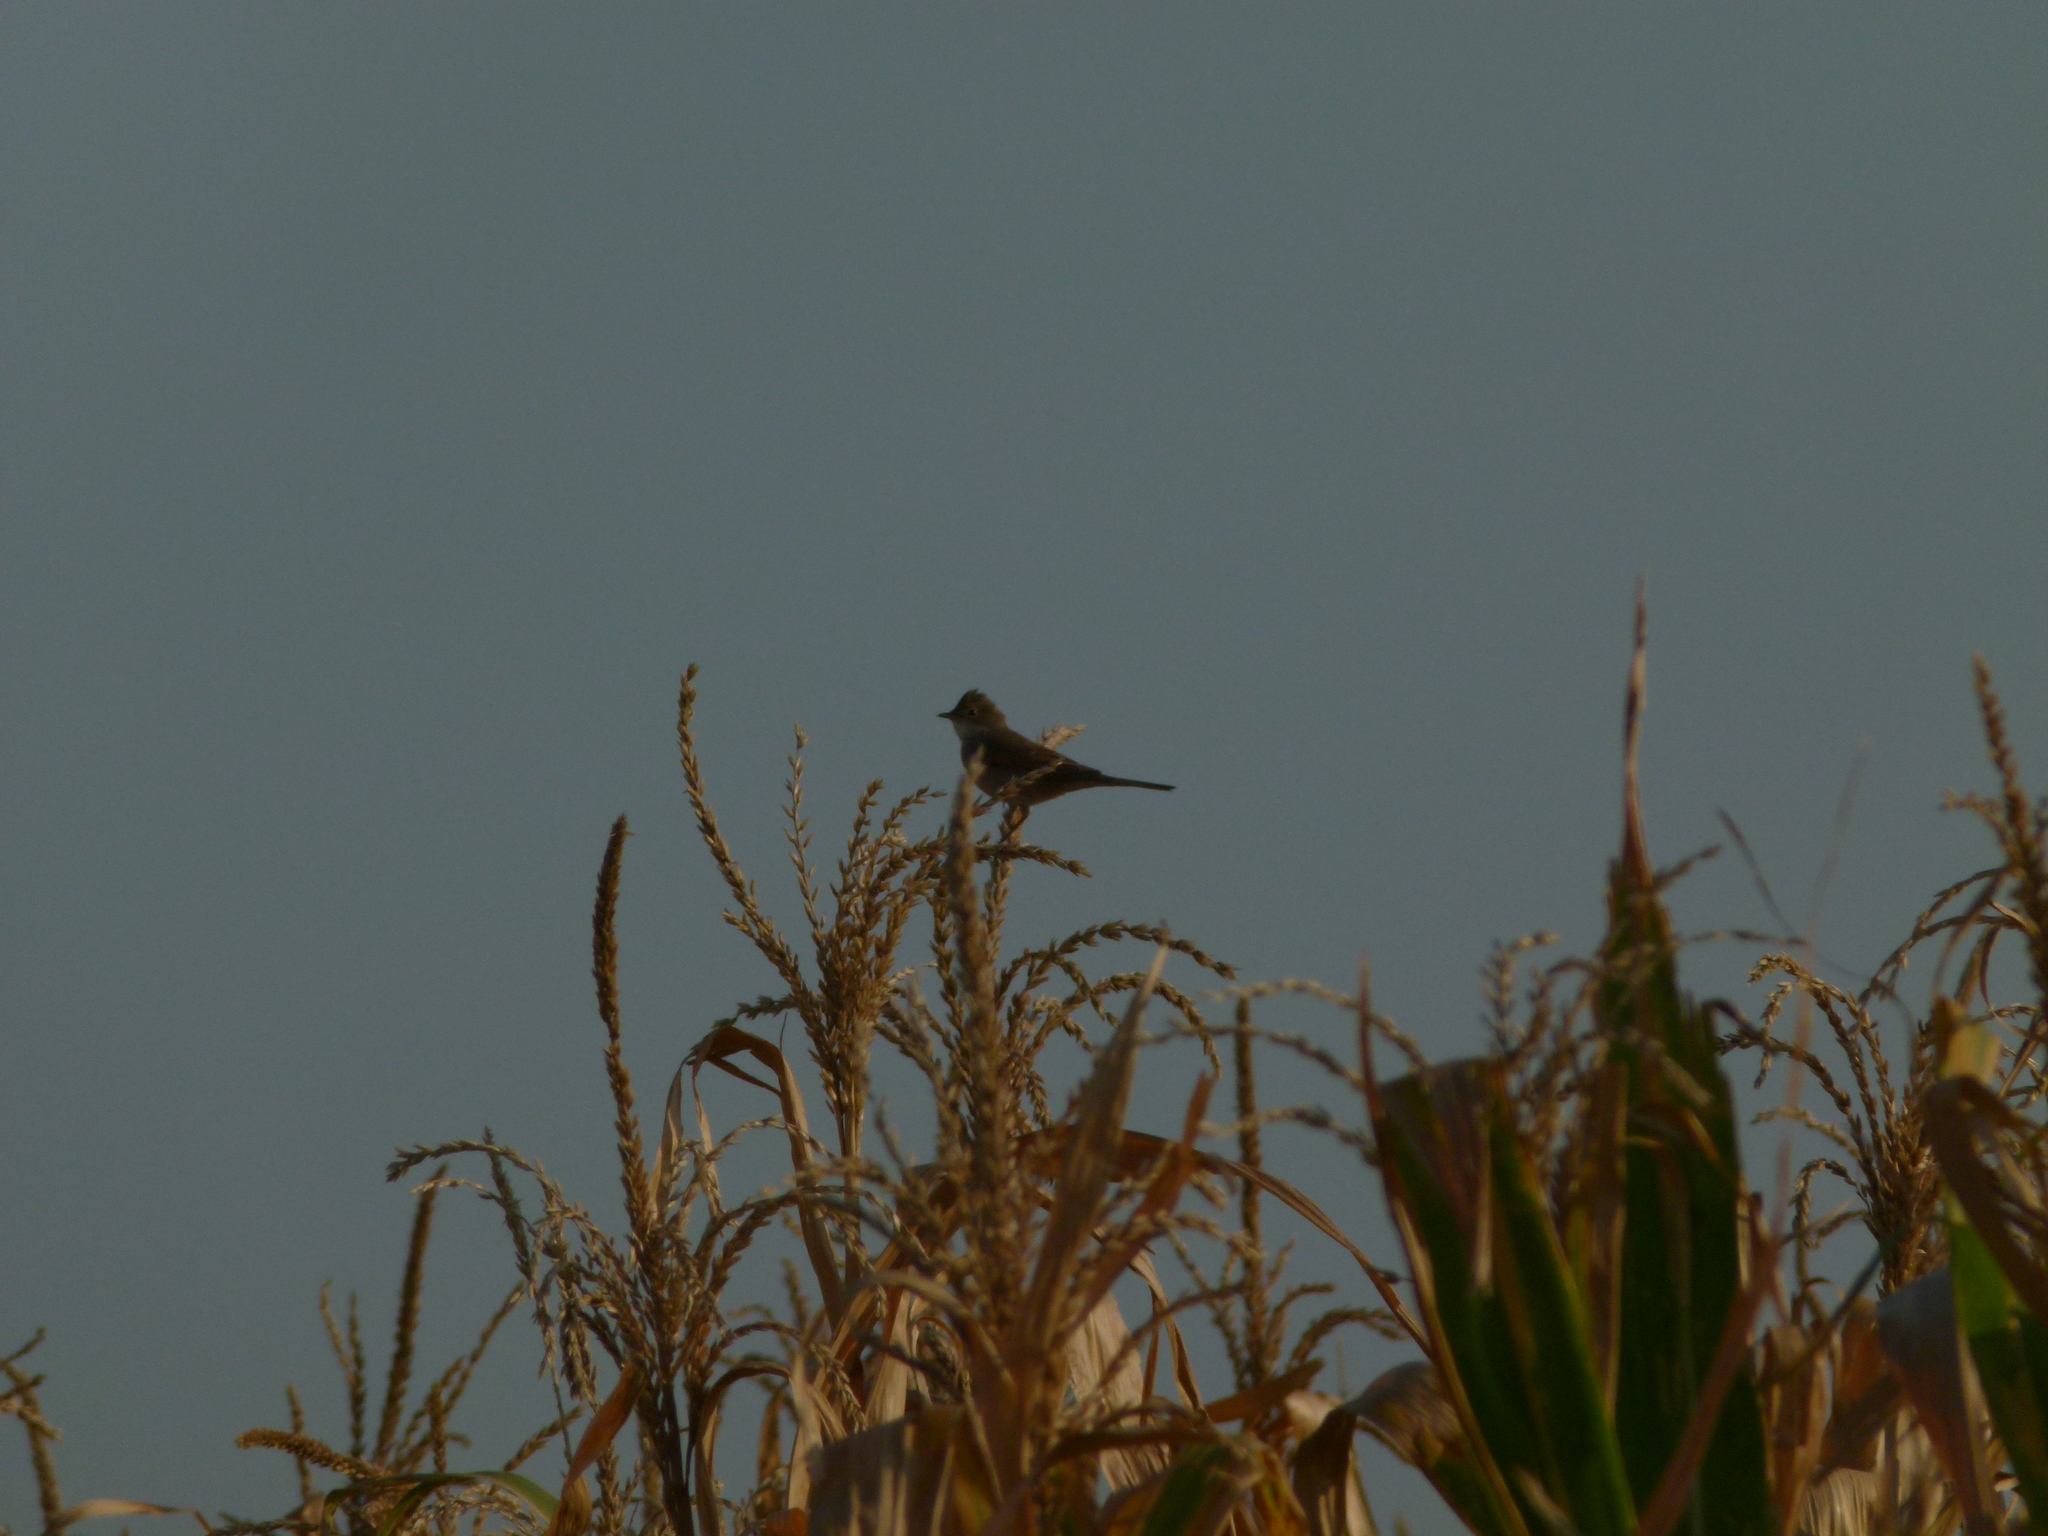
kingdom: Animalia
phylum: Chordata
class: Aves
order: Passeriformes
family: Sylviidae
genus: Sylvia
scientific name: Sylvia communis
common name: Common whitethroat
